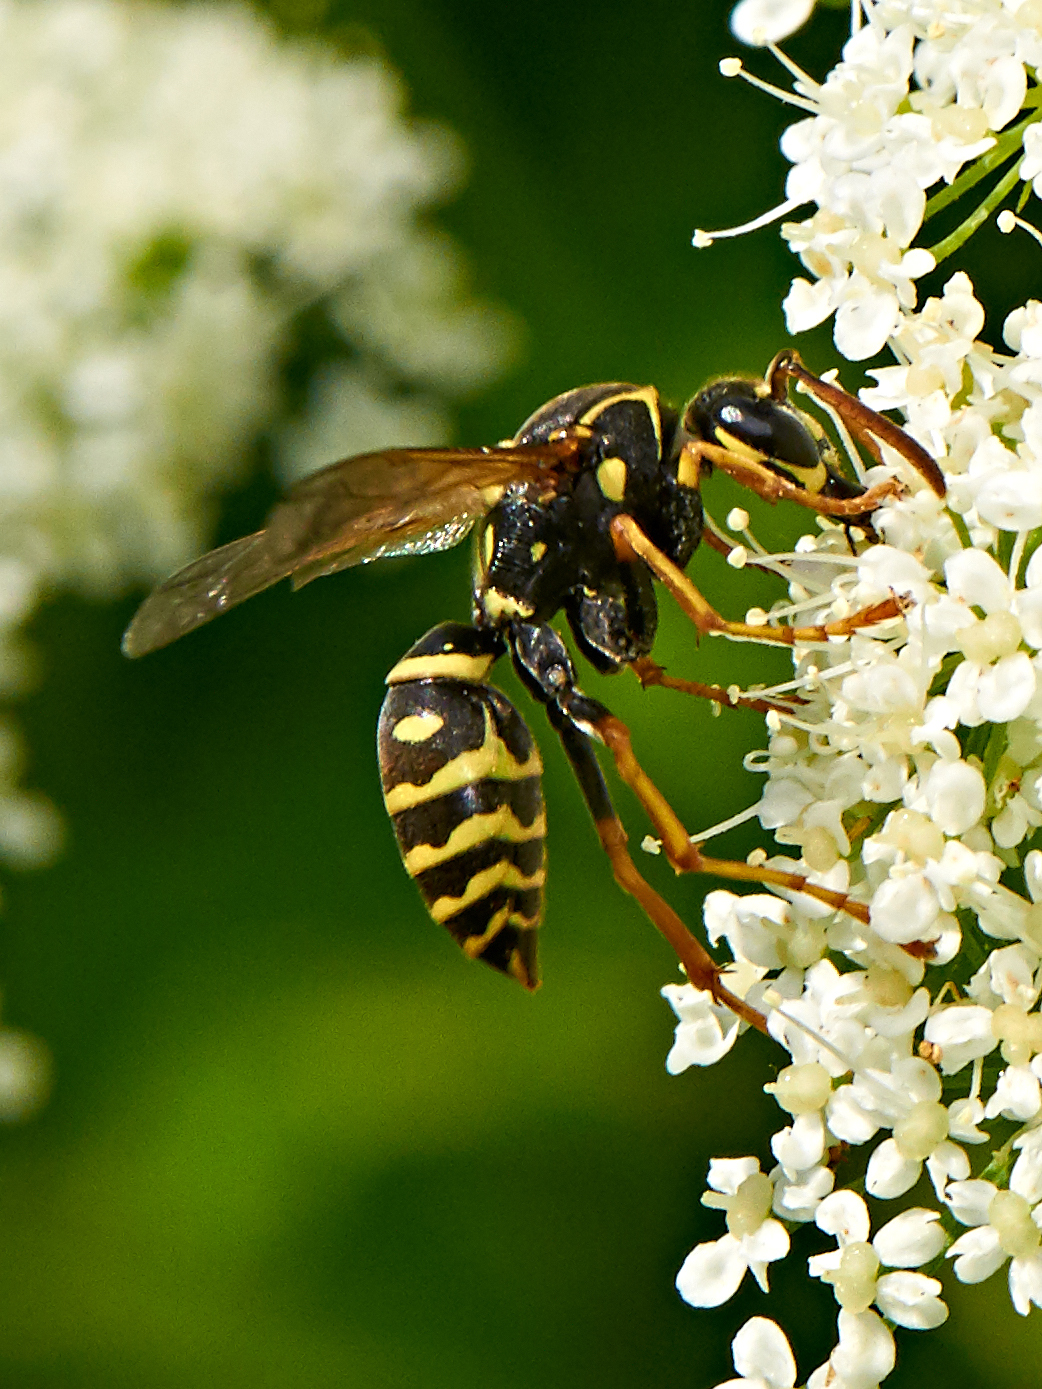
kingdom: Animalia
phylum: Arthropoda
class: Insecta
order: Hymenoptera
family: Eumenidae
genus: Polistes
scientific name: Polistes nimpha
